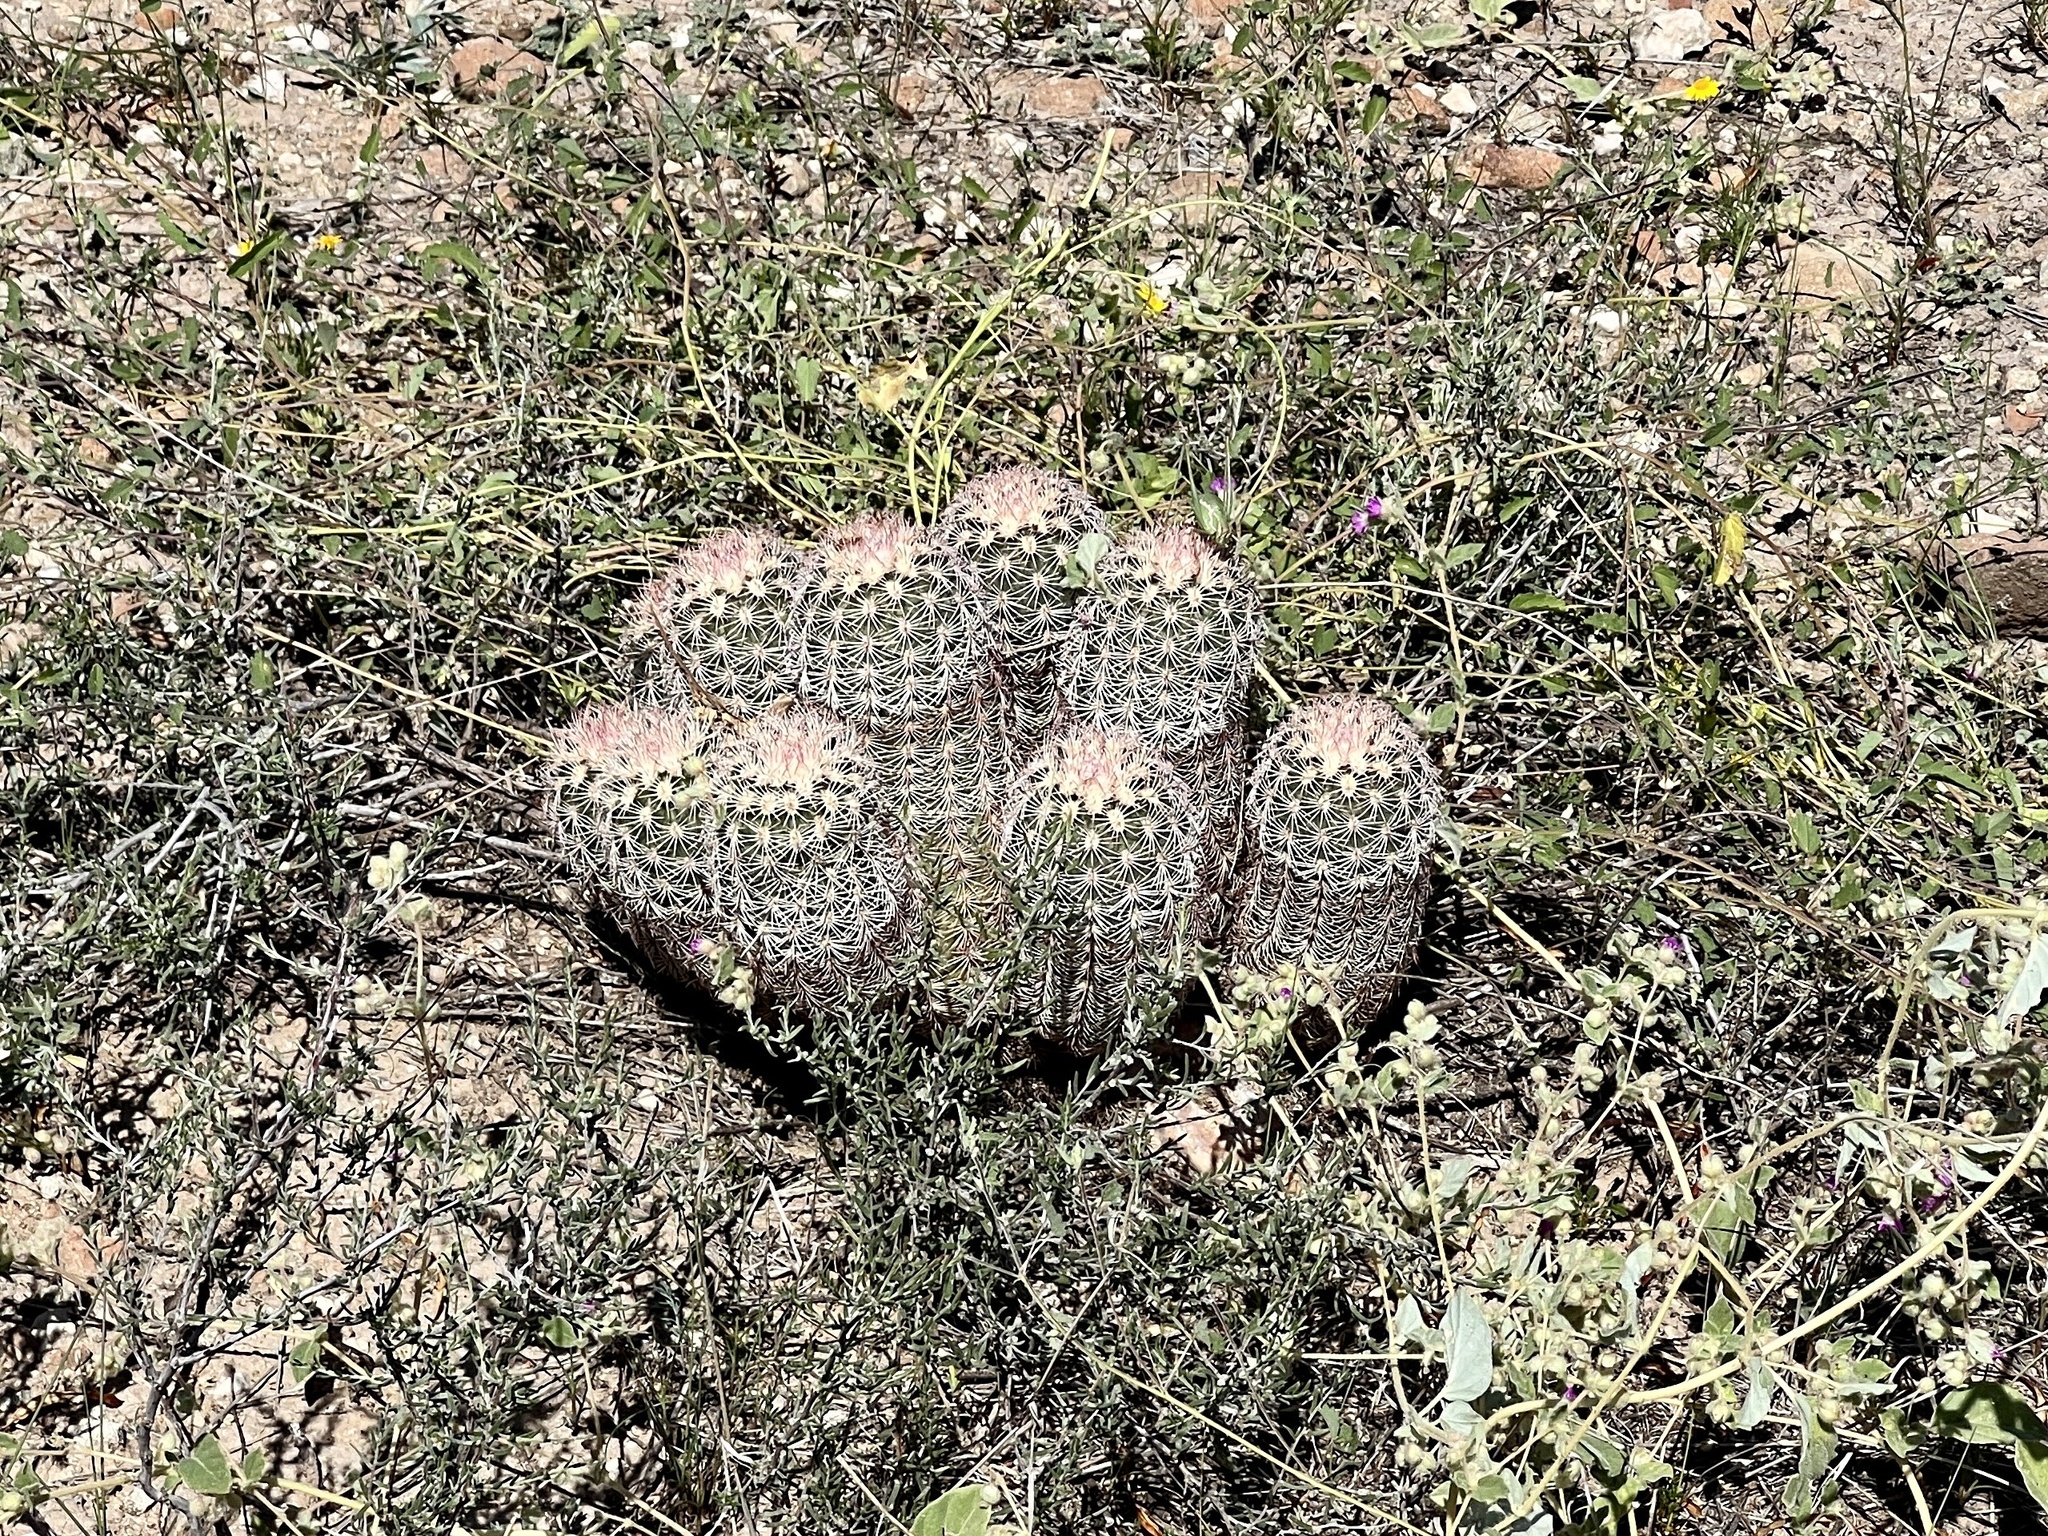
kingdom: Plantae
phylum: Tracheophyta
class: Magnoliopsida
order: Caryophyllales
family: Cactaceae
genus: Echinocereus
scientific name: Echinocereus dasyacanthus
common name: Spiny hedgehog cactus
